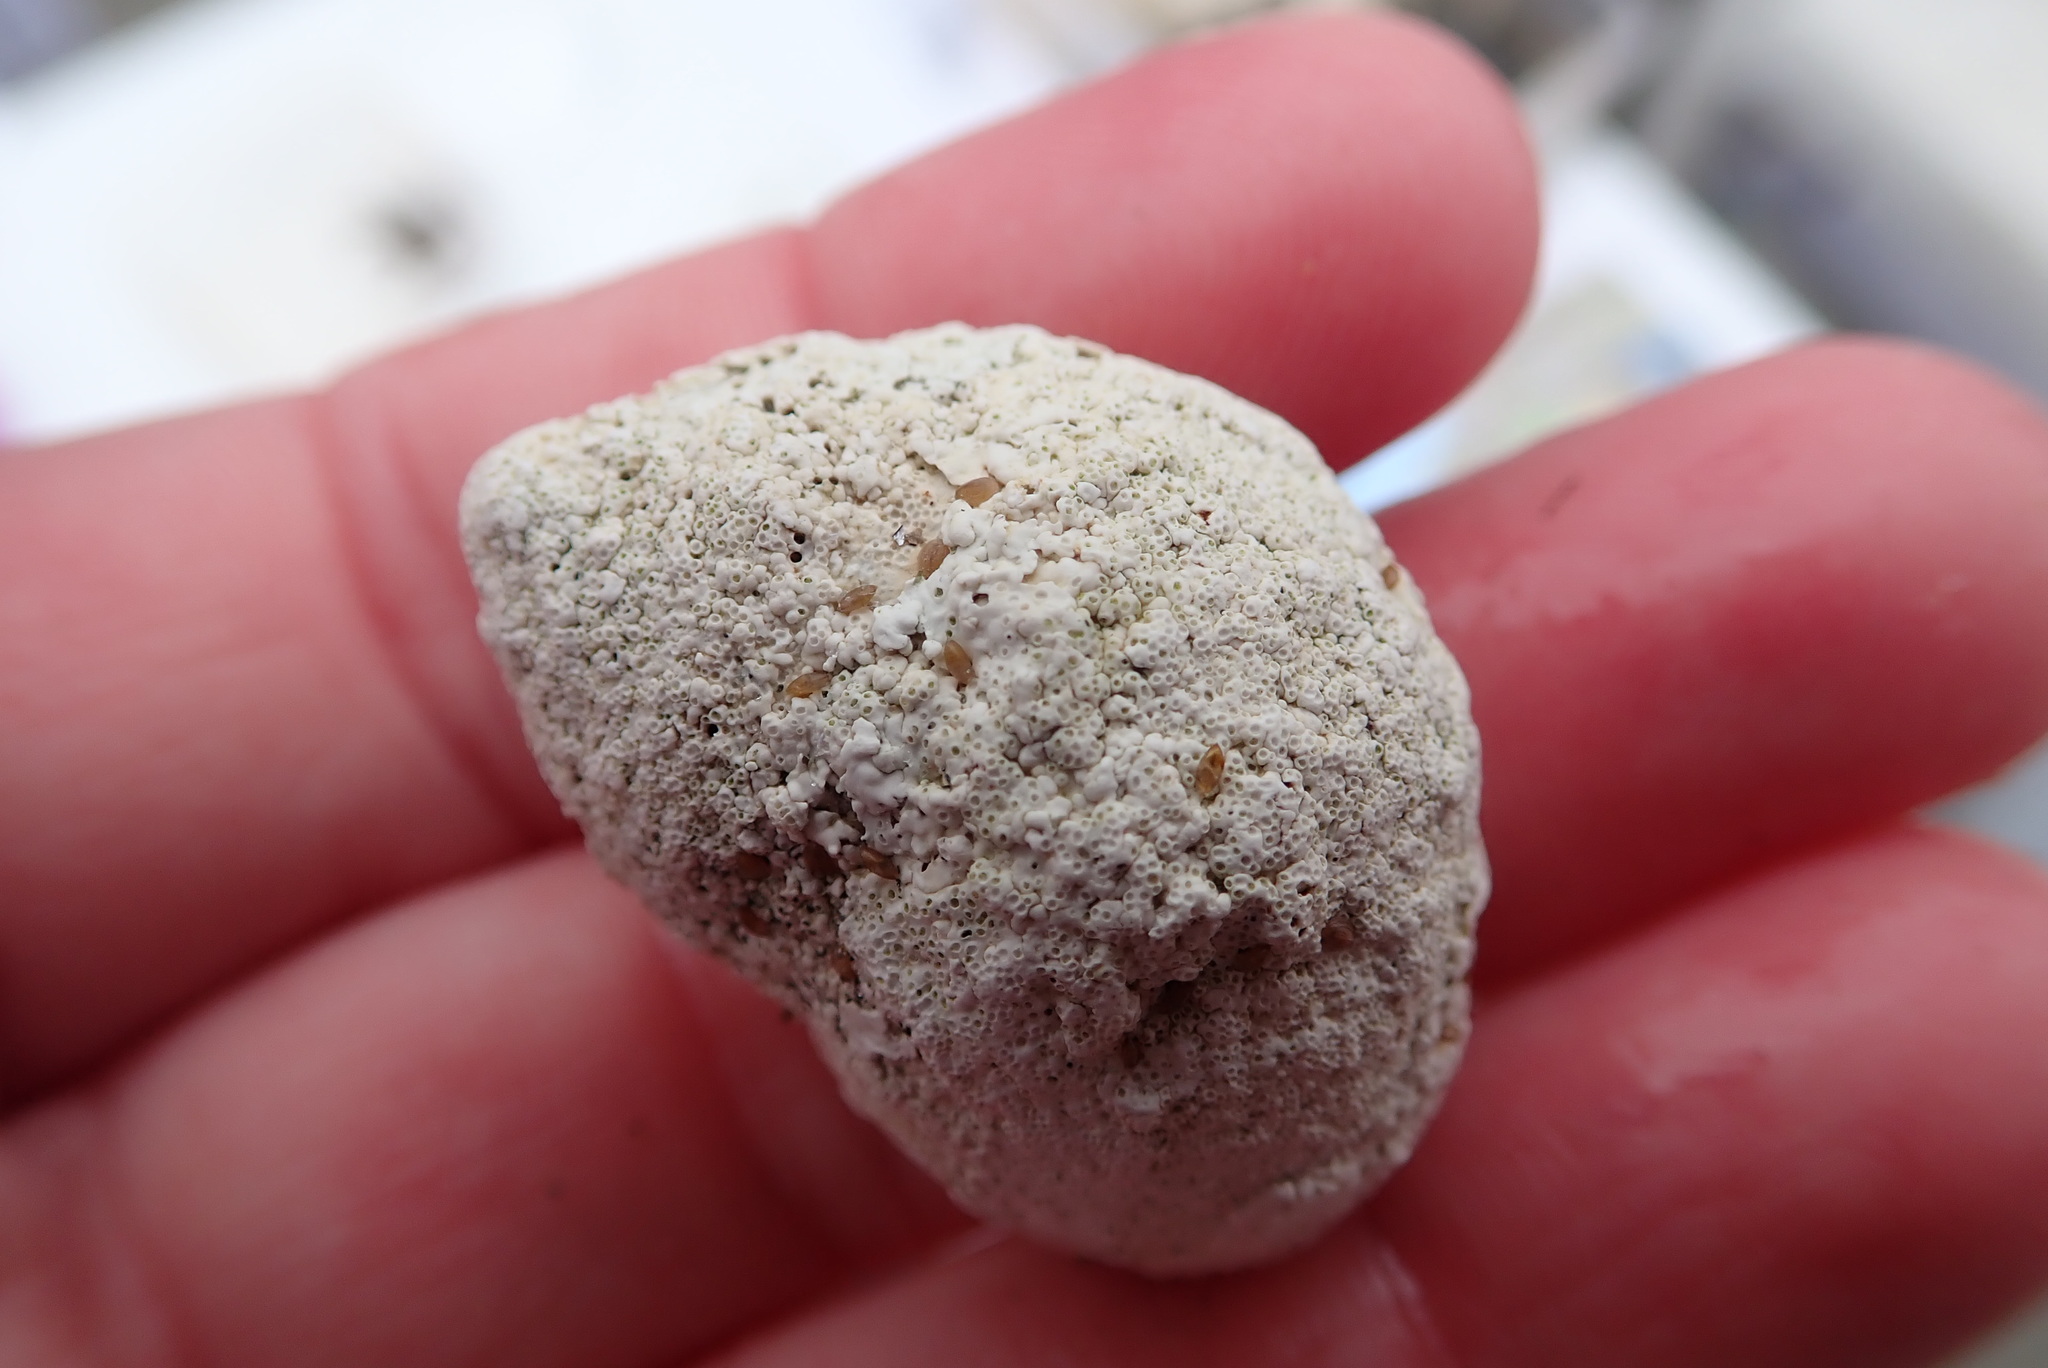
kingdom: Animalia
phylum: Mollusca
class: Gastropoda
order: Littorinimorpha
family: Littorinidae
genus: Littorina
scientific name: Littorina littorea
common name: Common periwinkle
